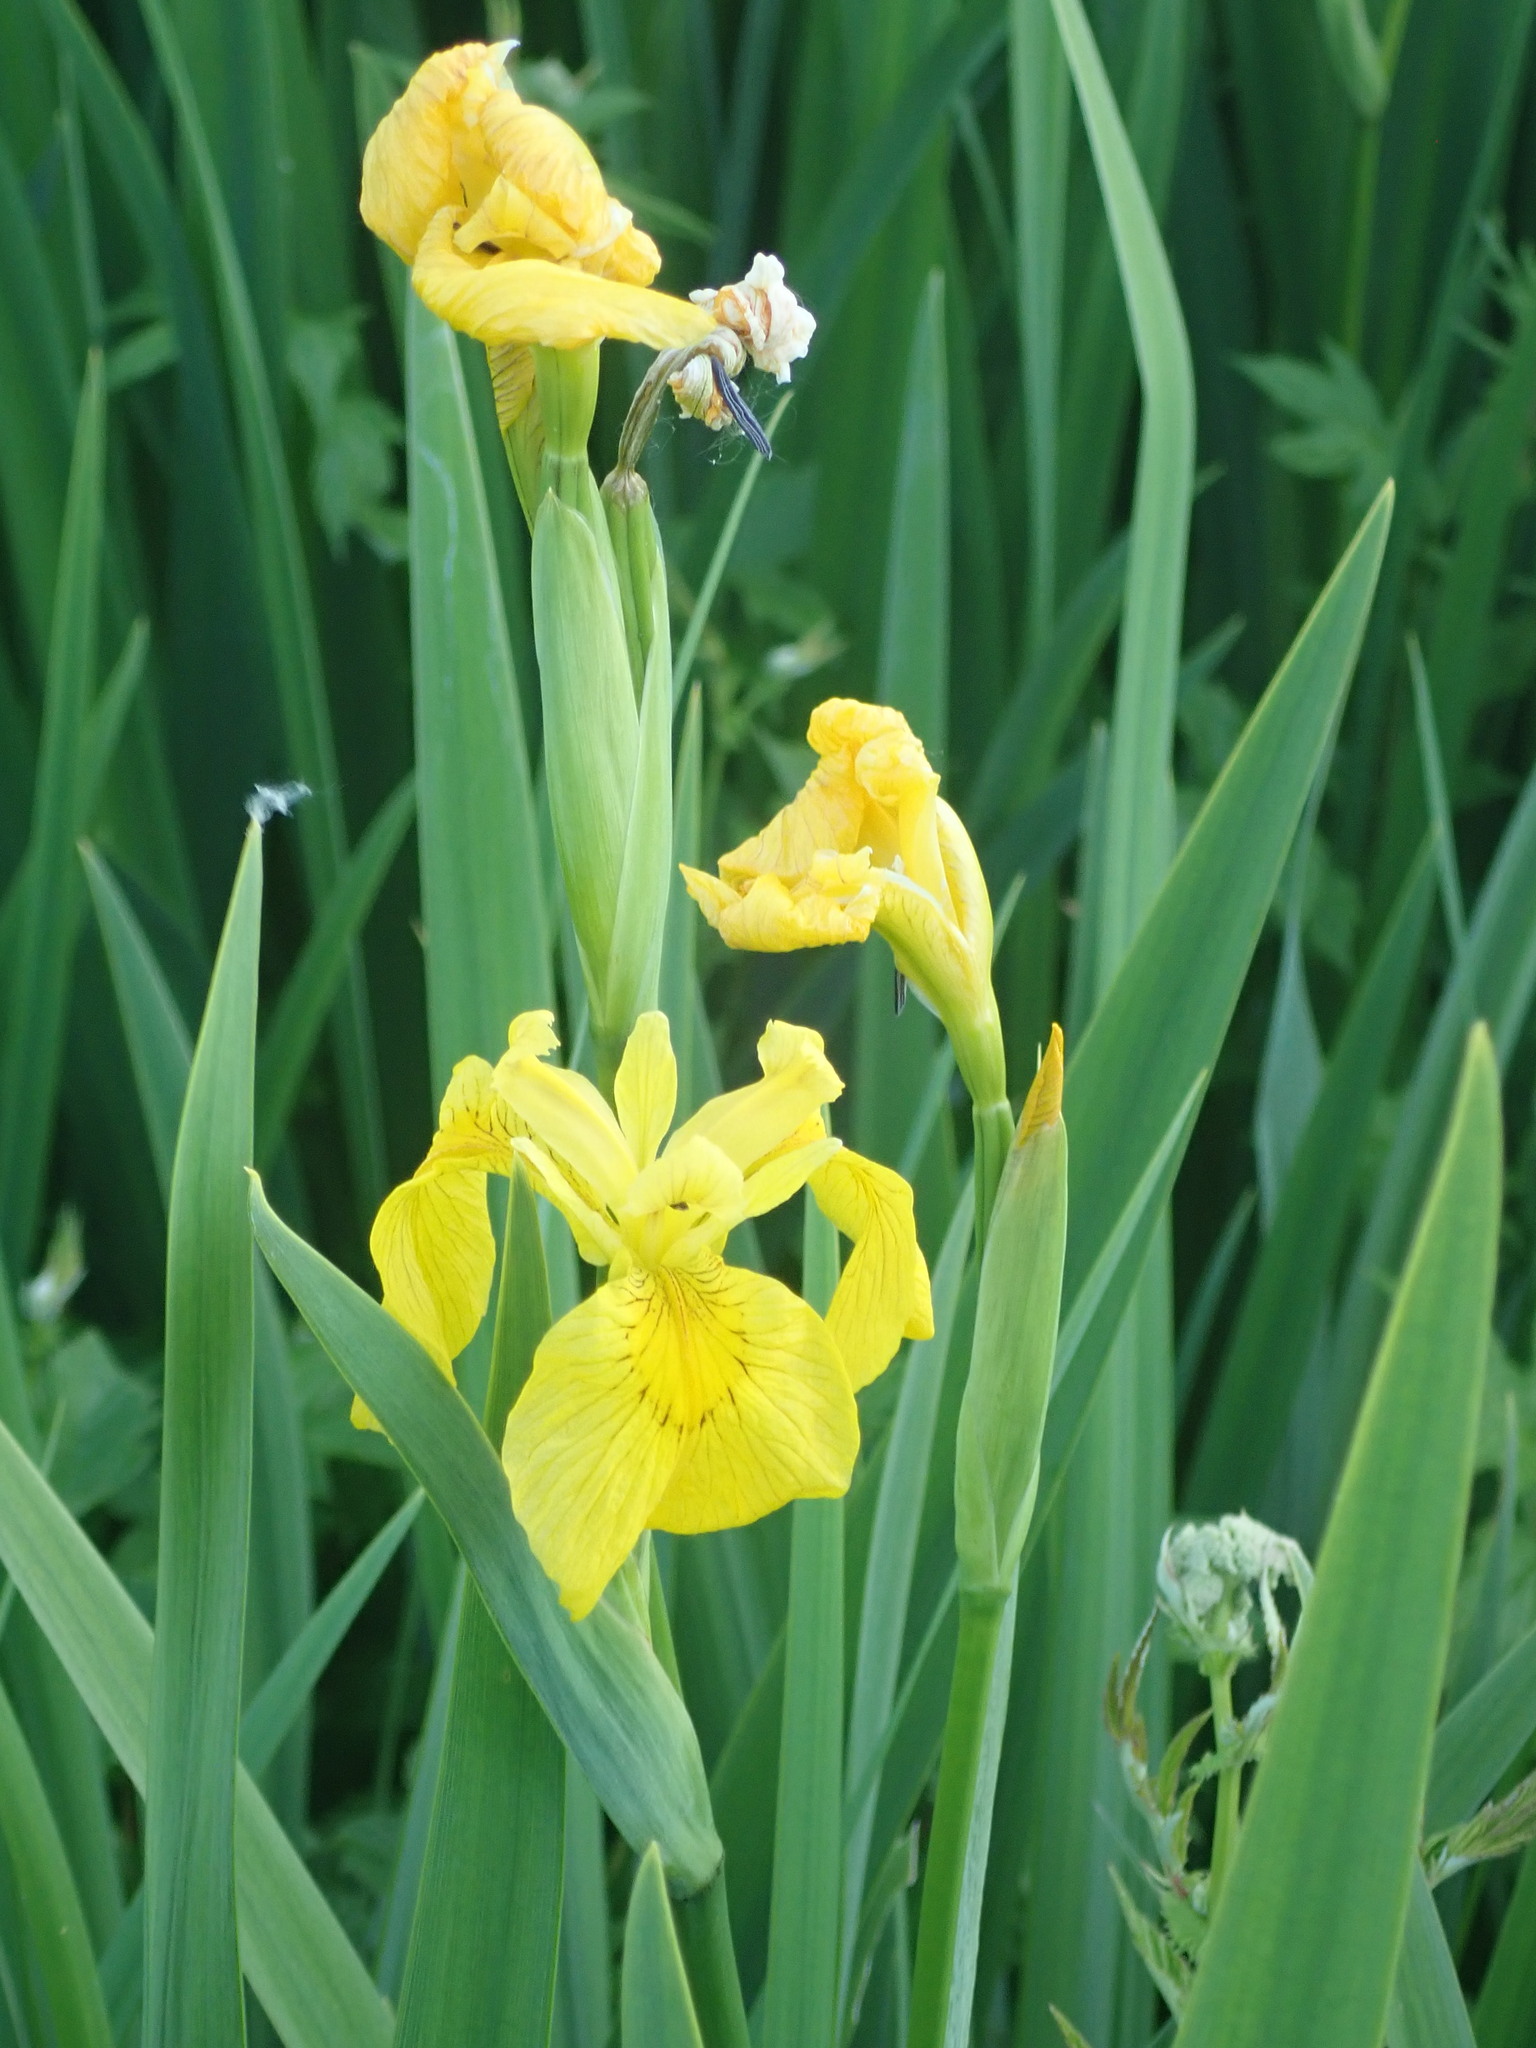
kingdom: Plantae
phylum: Tracheophyta
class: Liliopsida
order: Asparagales
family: Iridaceae
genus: Iris
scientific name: Iris pseudacorus
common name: Yellow flag
